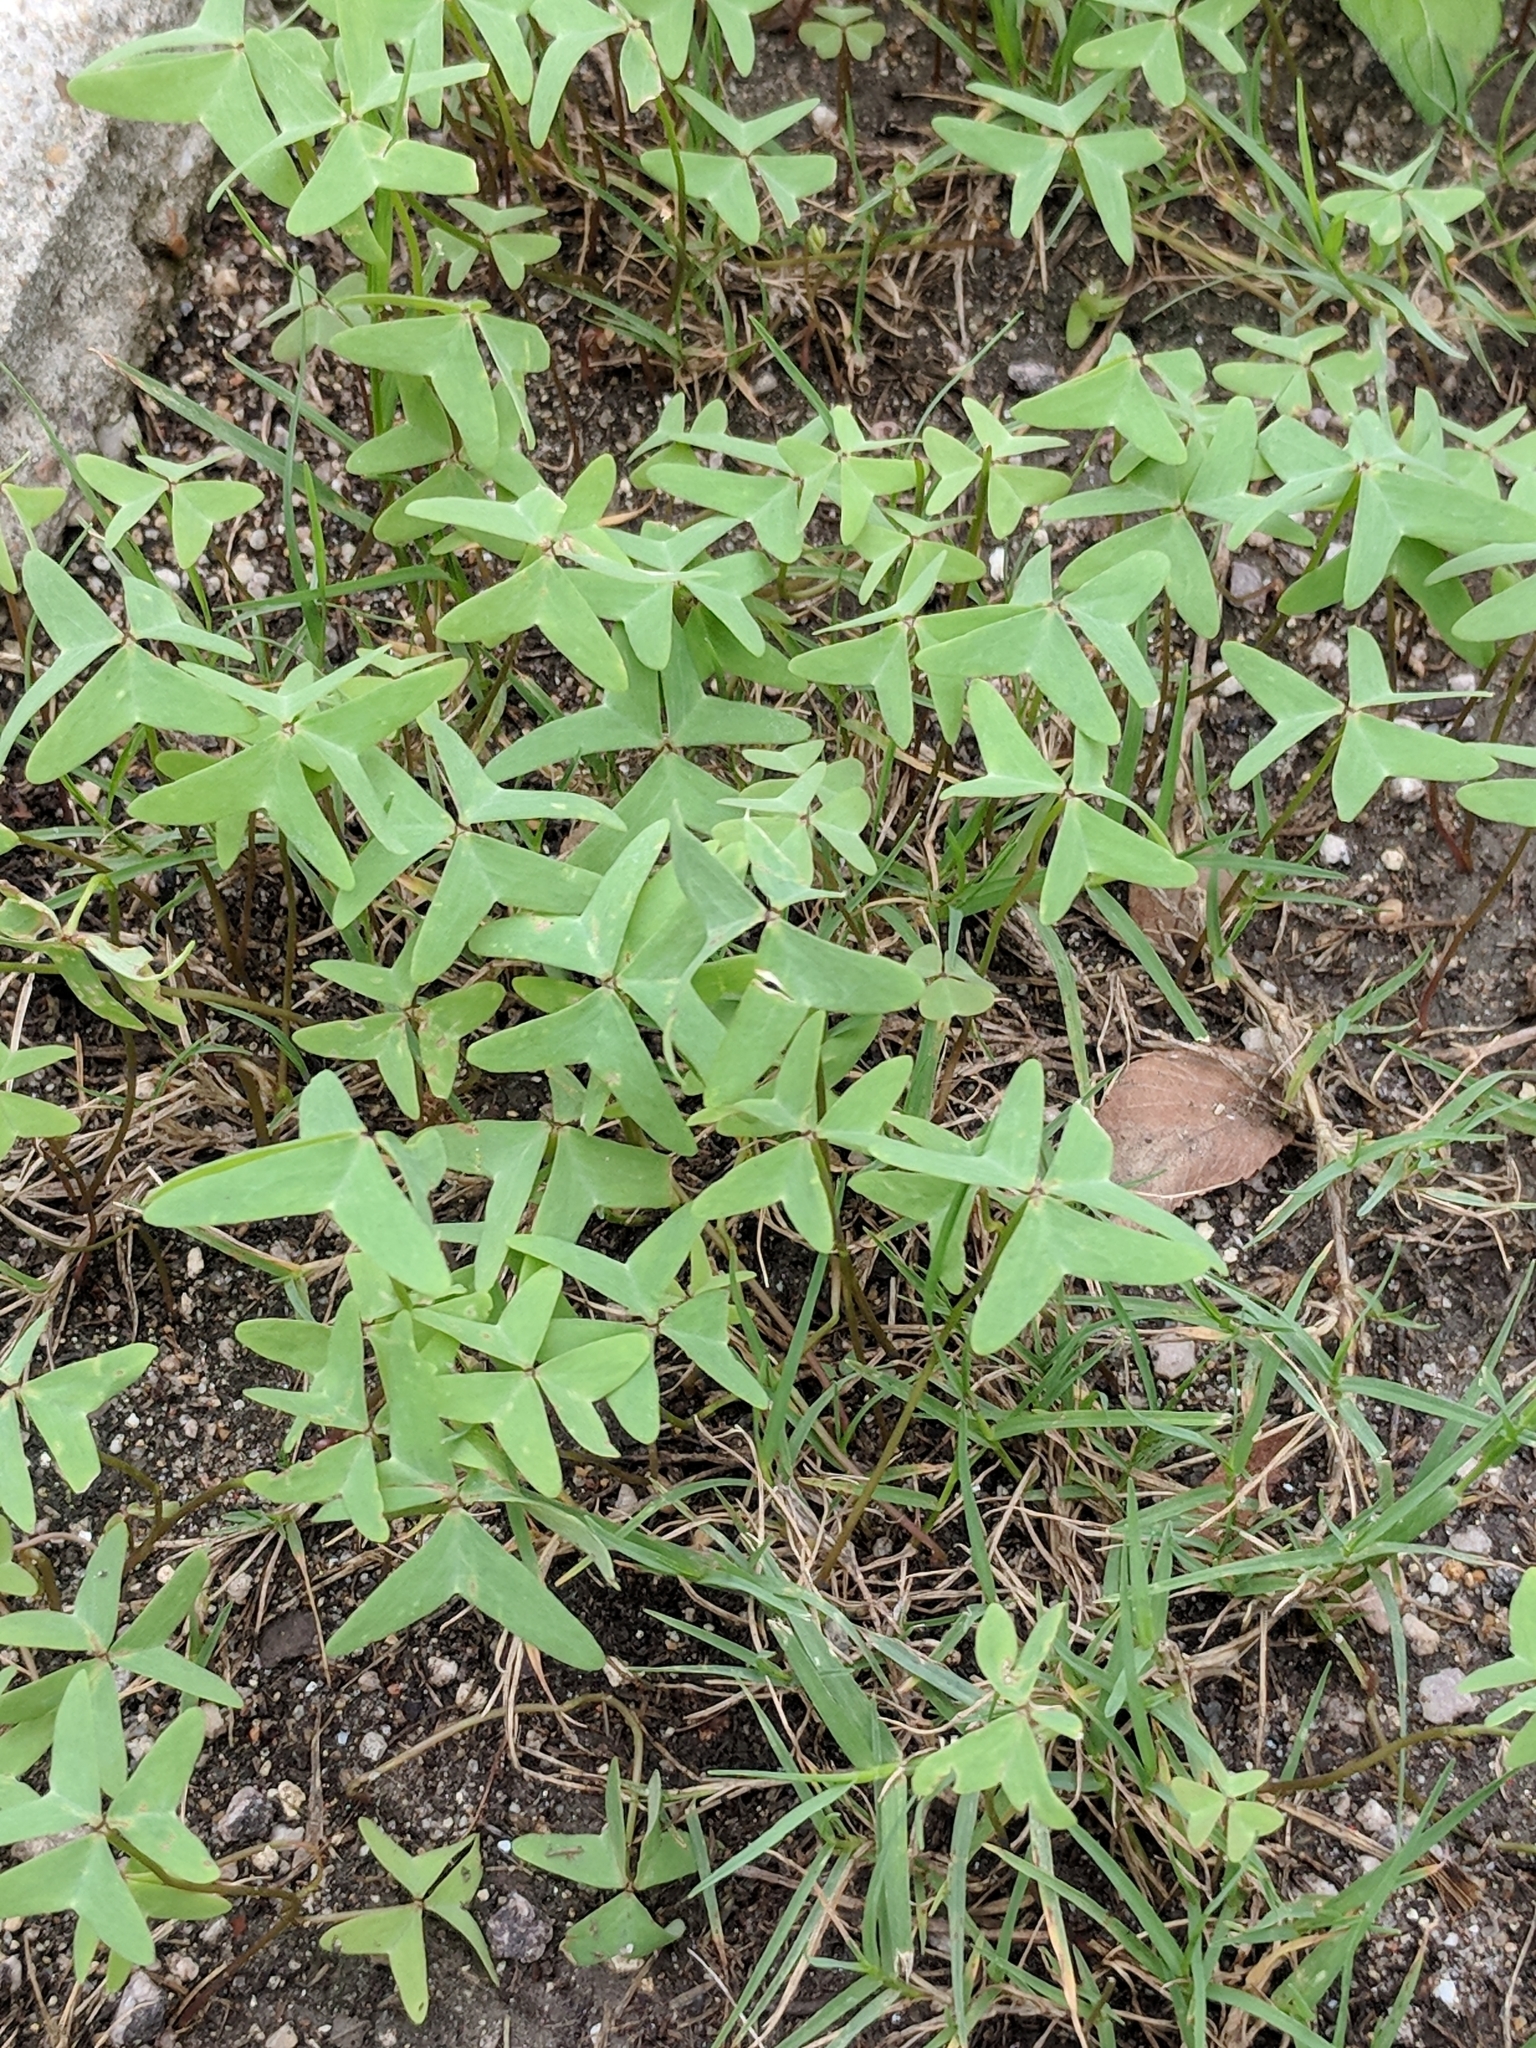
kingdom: Plantae
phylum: Tracheophyta
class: Magnoliopsida
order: Oxalidales
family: Oxalidaceae
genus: Oxalis
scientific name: Oxalis drummondii
